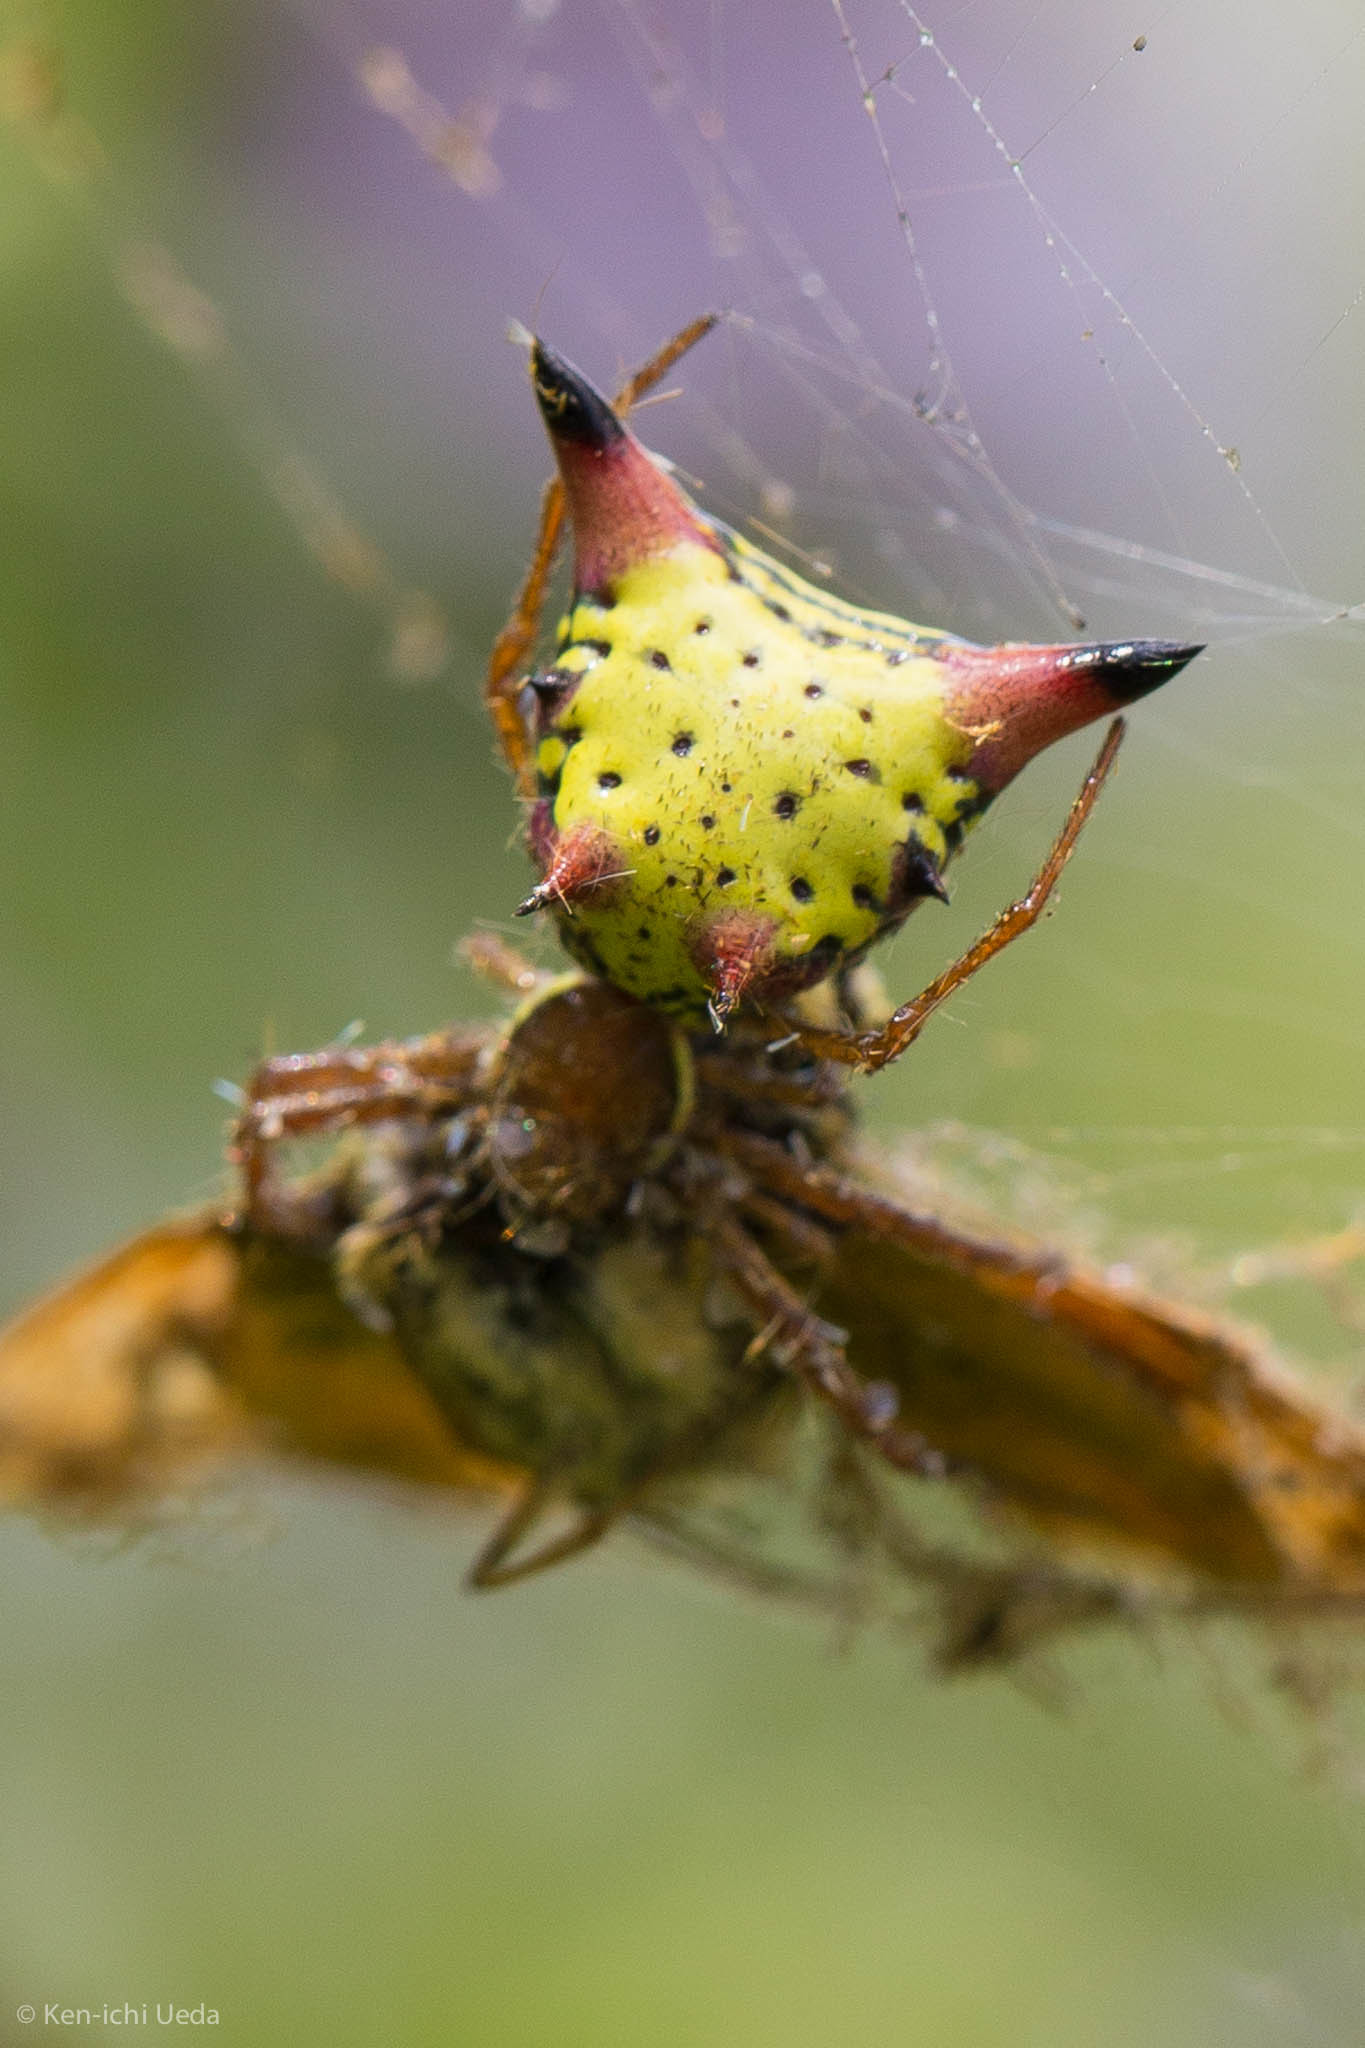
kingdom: Animalia
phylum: Arthropoda
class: Arachnida
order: Araneae
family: Araneidae
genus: Micrathena
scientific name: Micrathena sagittata
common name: Orb weavers
